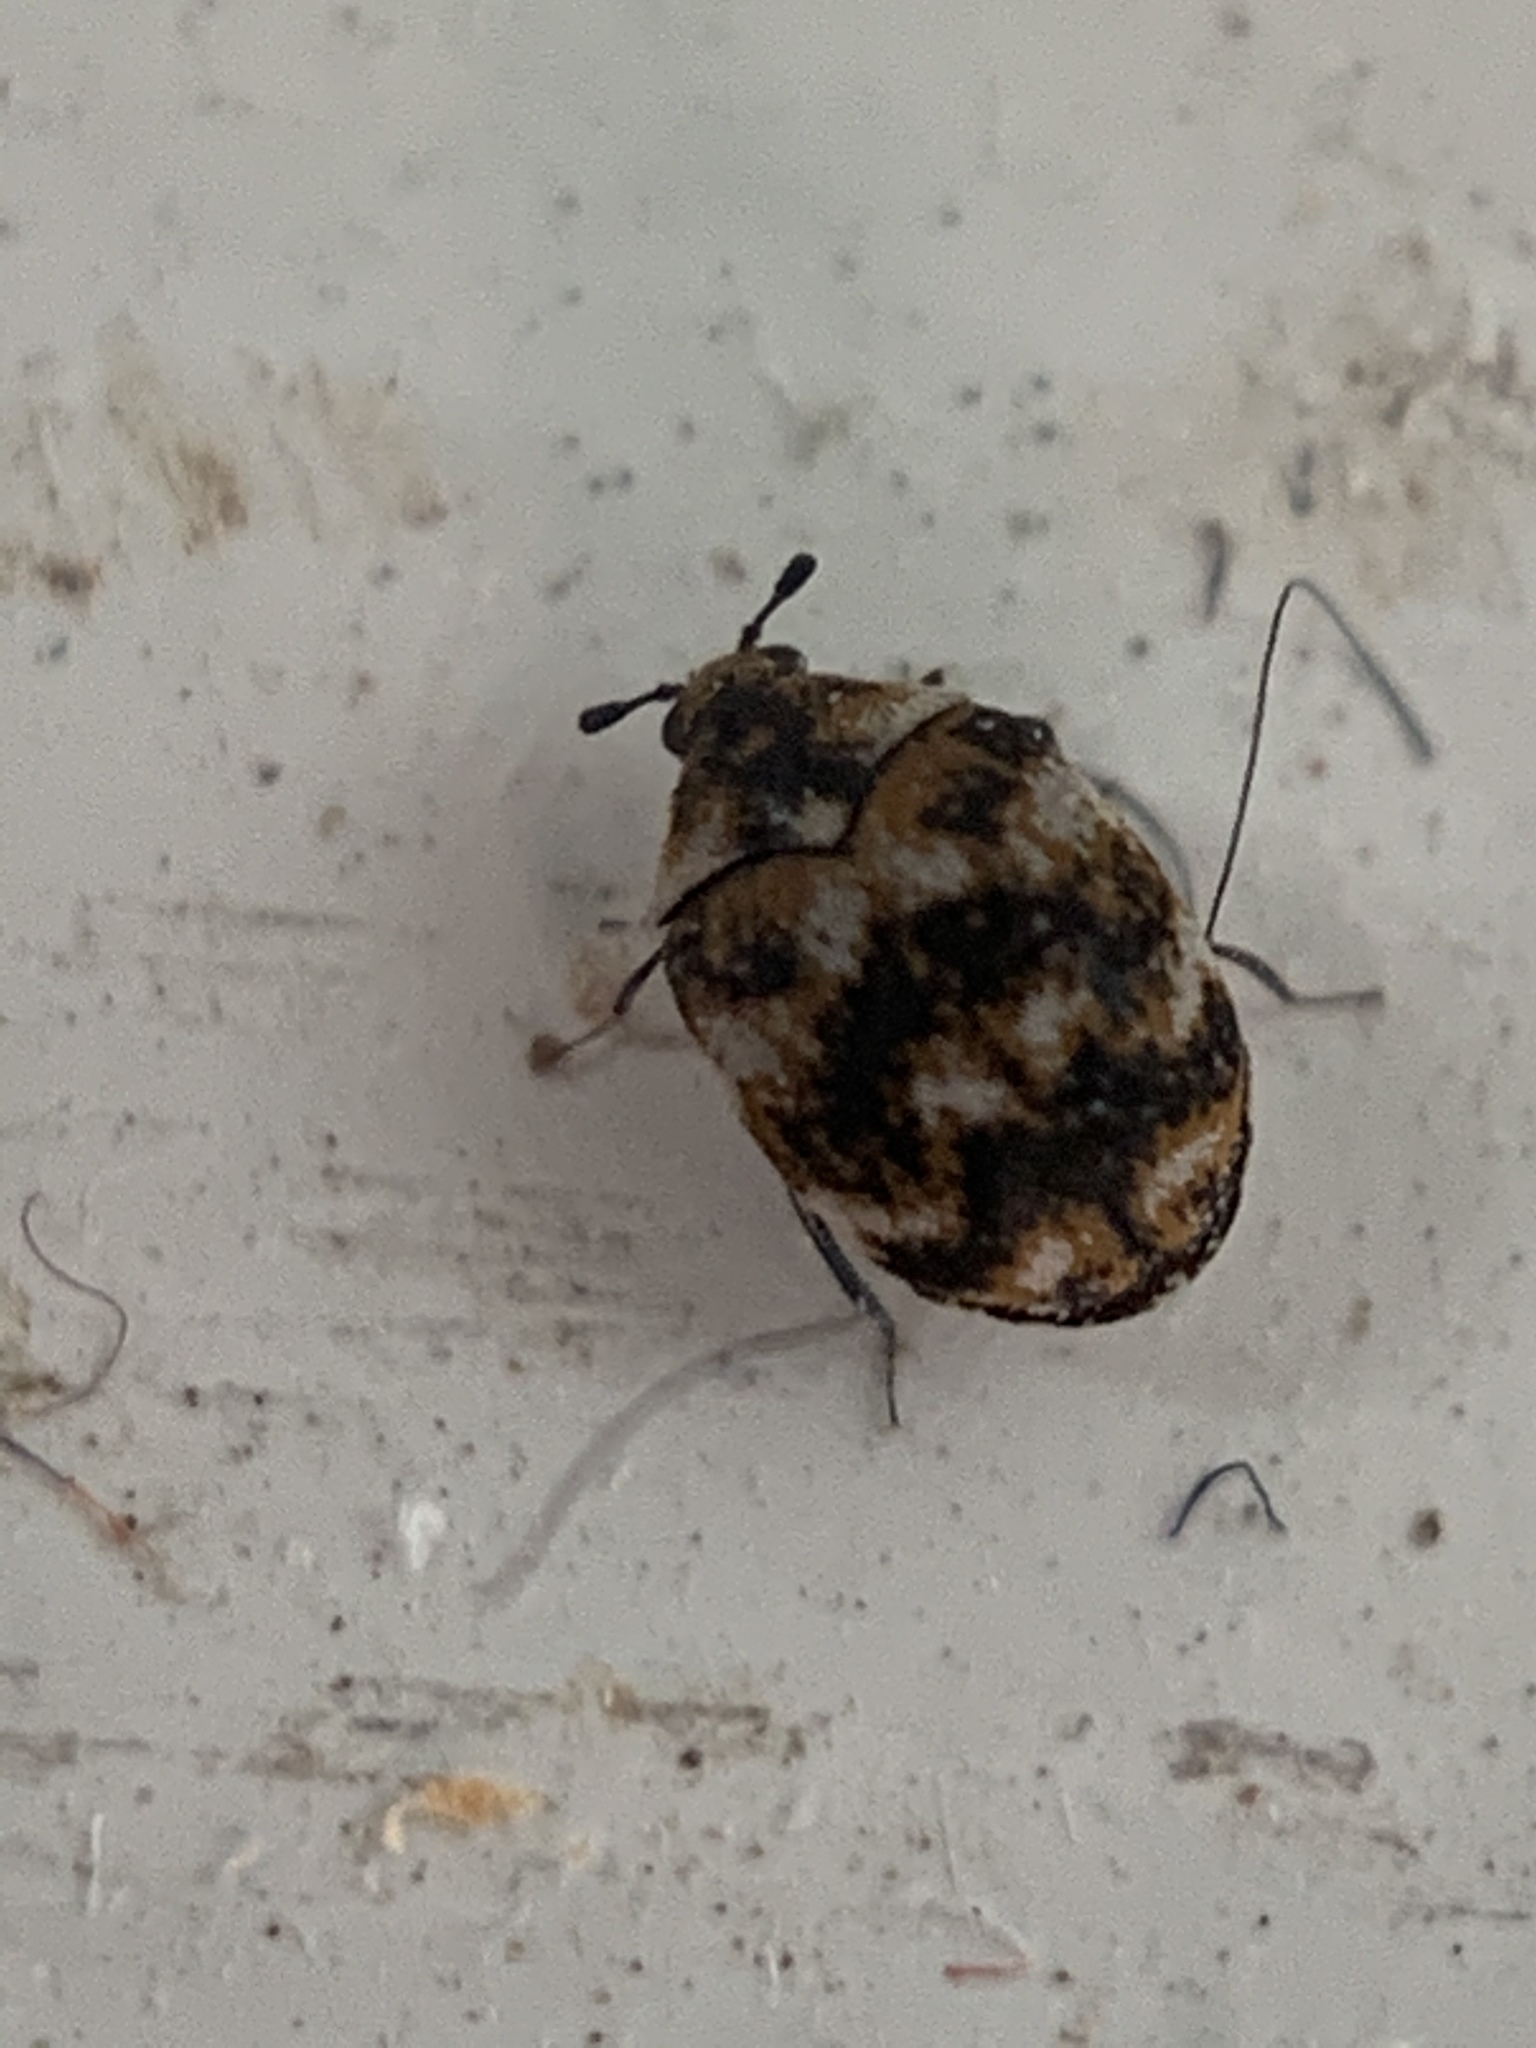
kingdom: Animalia
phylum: Arthropoda
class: Insecta
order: Coleoptera
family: Dermestidae
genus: Anthrenus
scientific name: Anthrenus verbasci
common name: Varied carpet beetle
